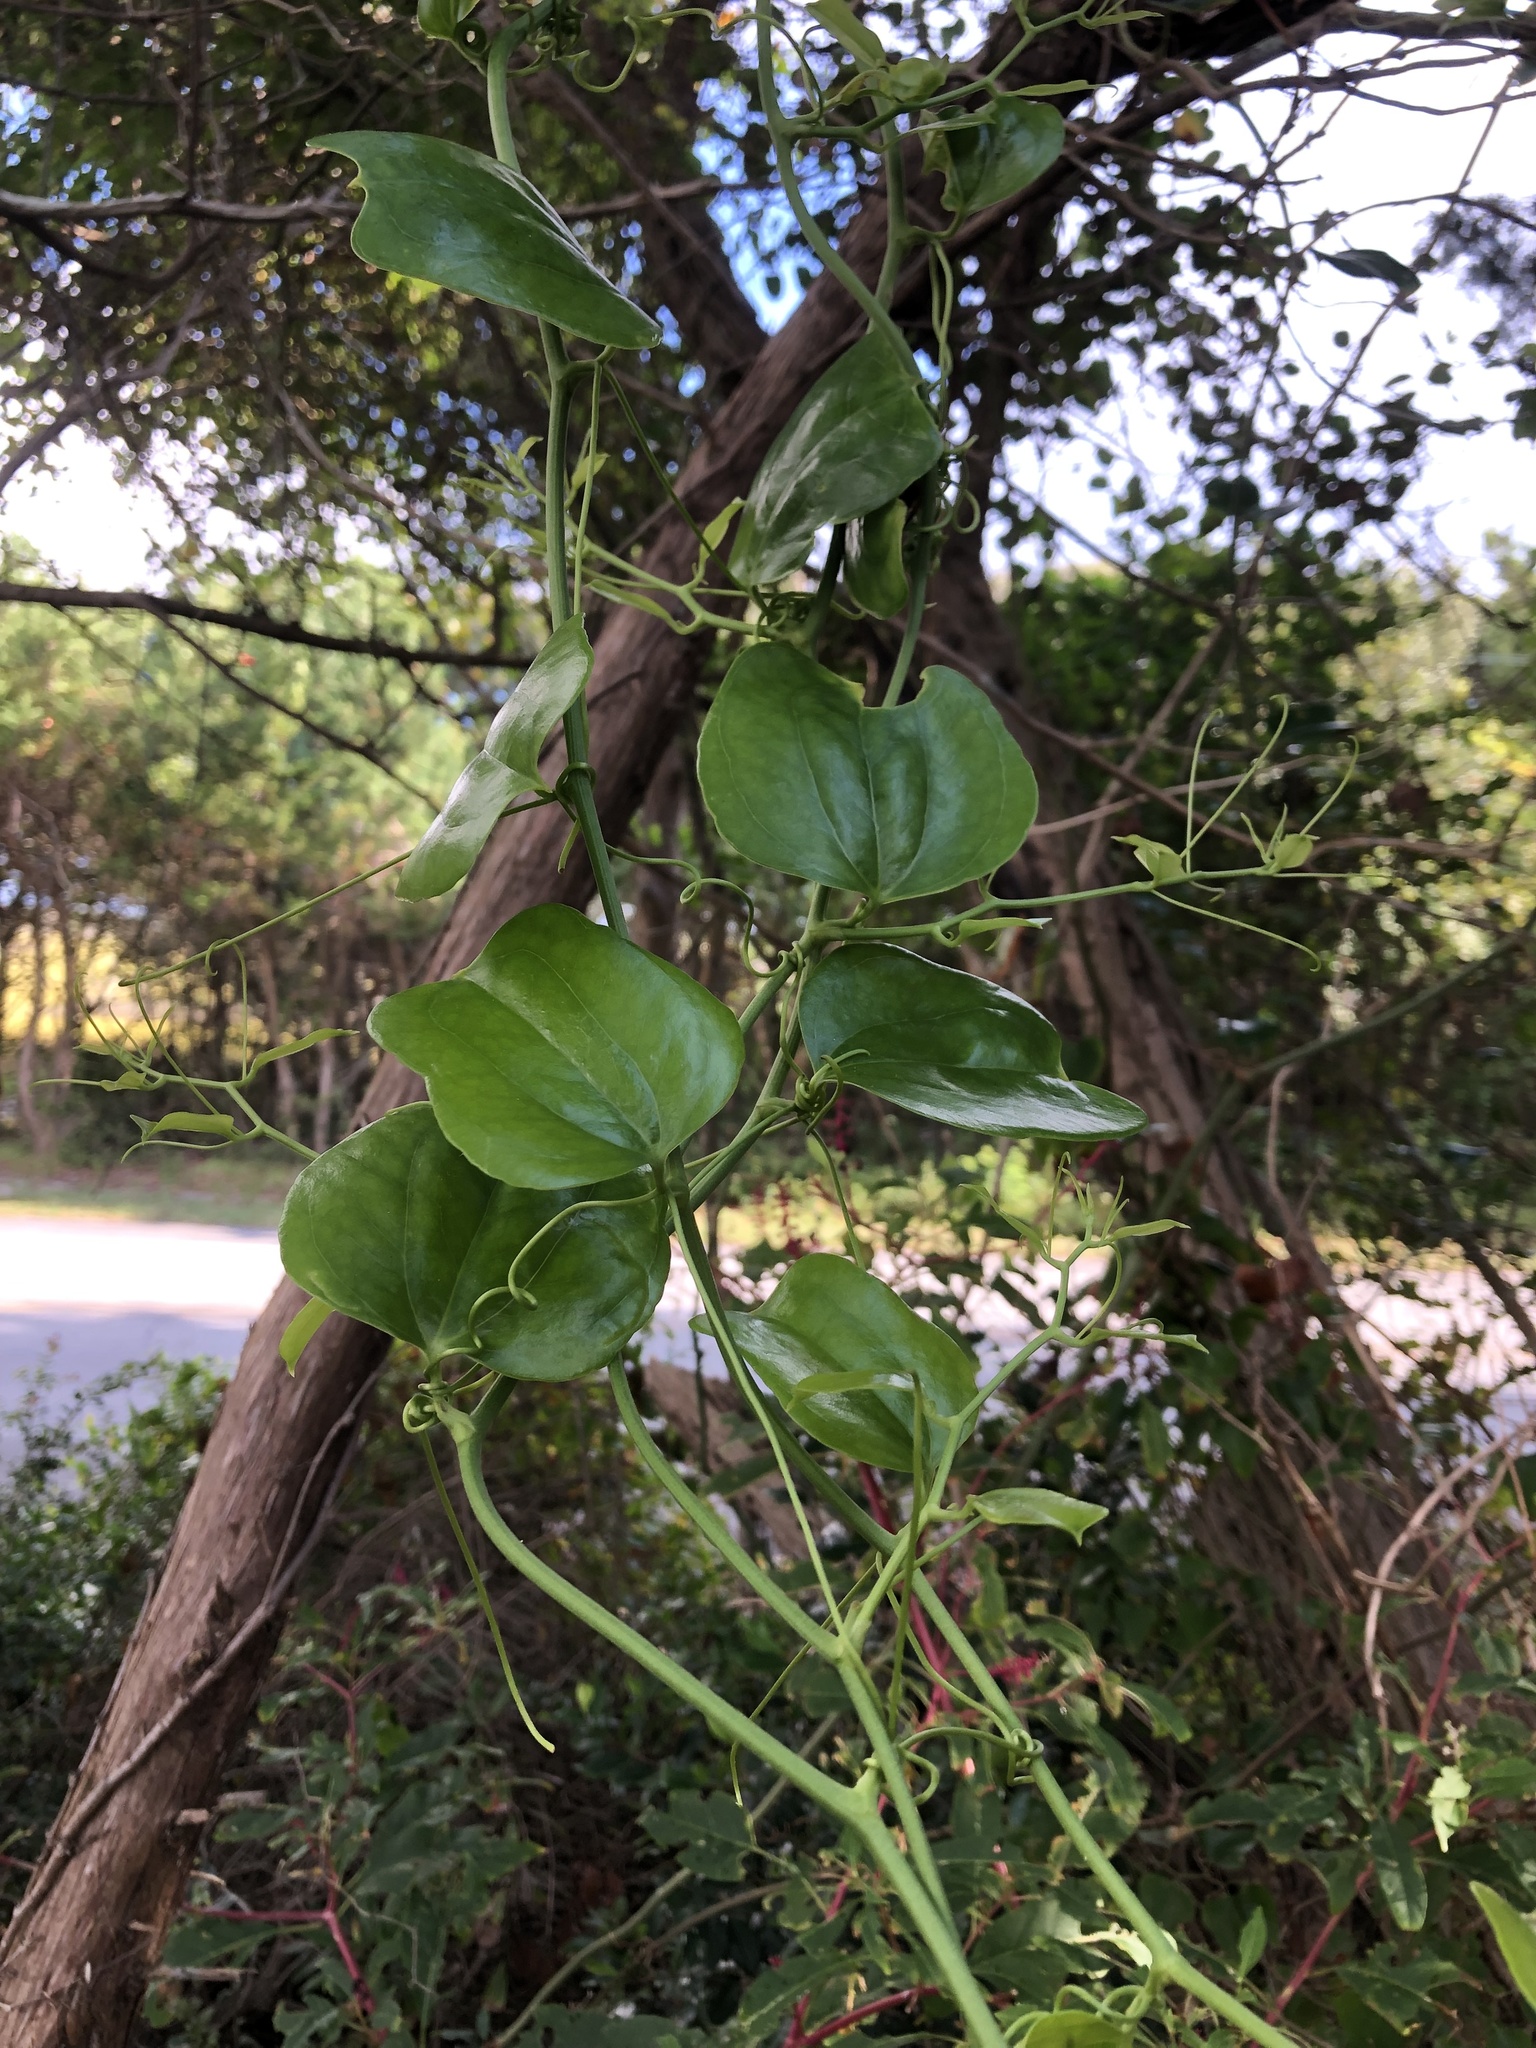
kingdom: Plantae
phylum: Tracheophyta
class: Liliopsida
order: Liliales
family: Smilacaceae
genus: Smilax
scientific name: Smilax rotundifolia
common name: Bullbriar
